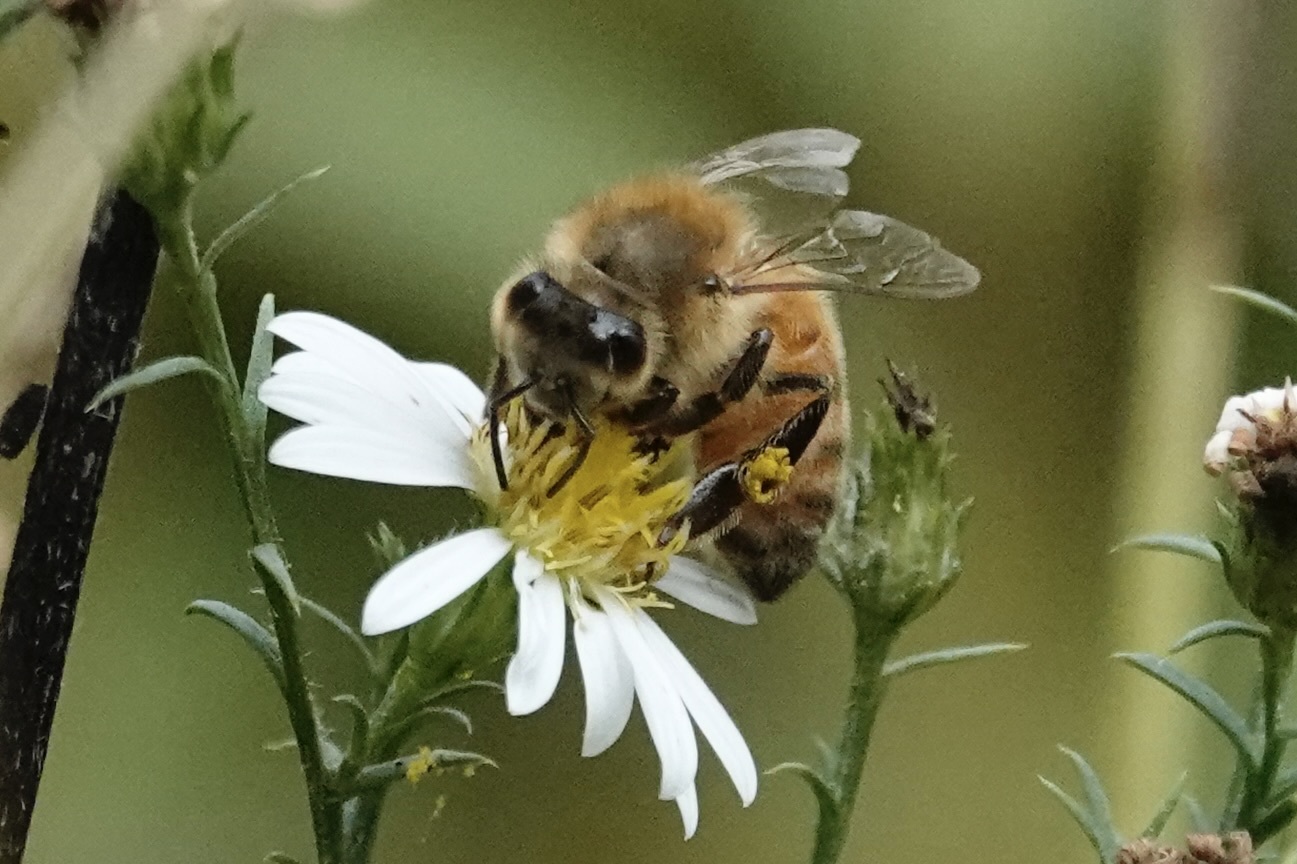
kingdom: Animalia
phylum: Arthropoda
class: Insecta
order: Hymenoptera
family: Apidae
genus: Apis
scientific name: Apis mellifera
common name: Honey bee
